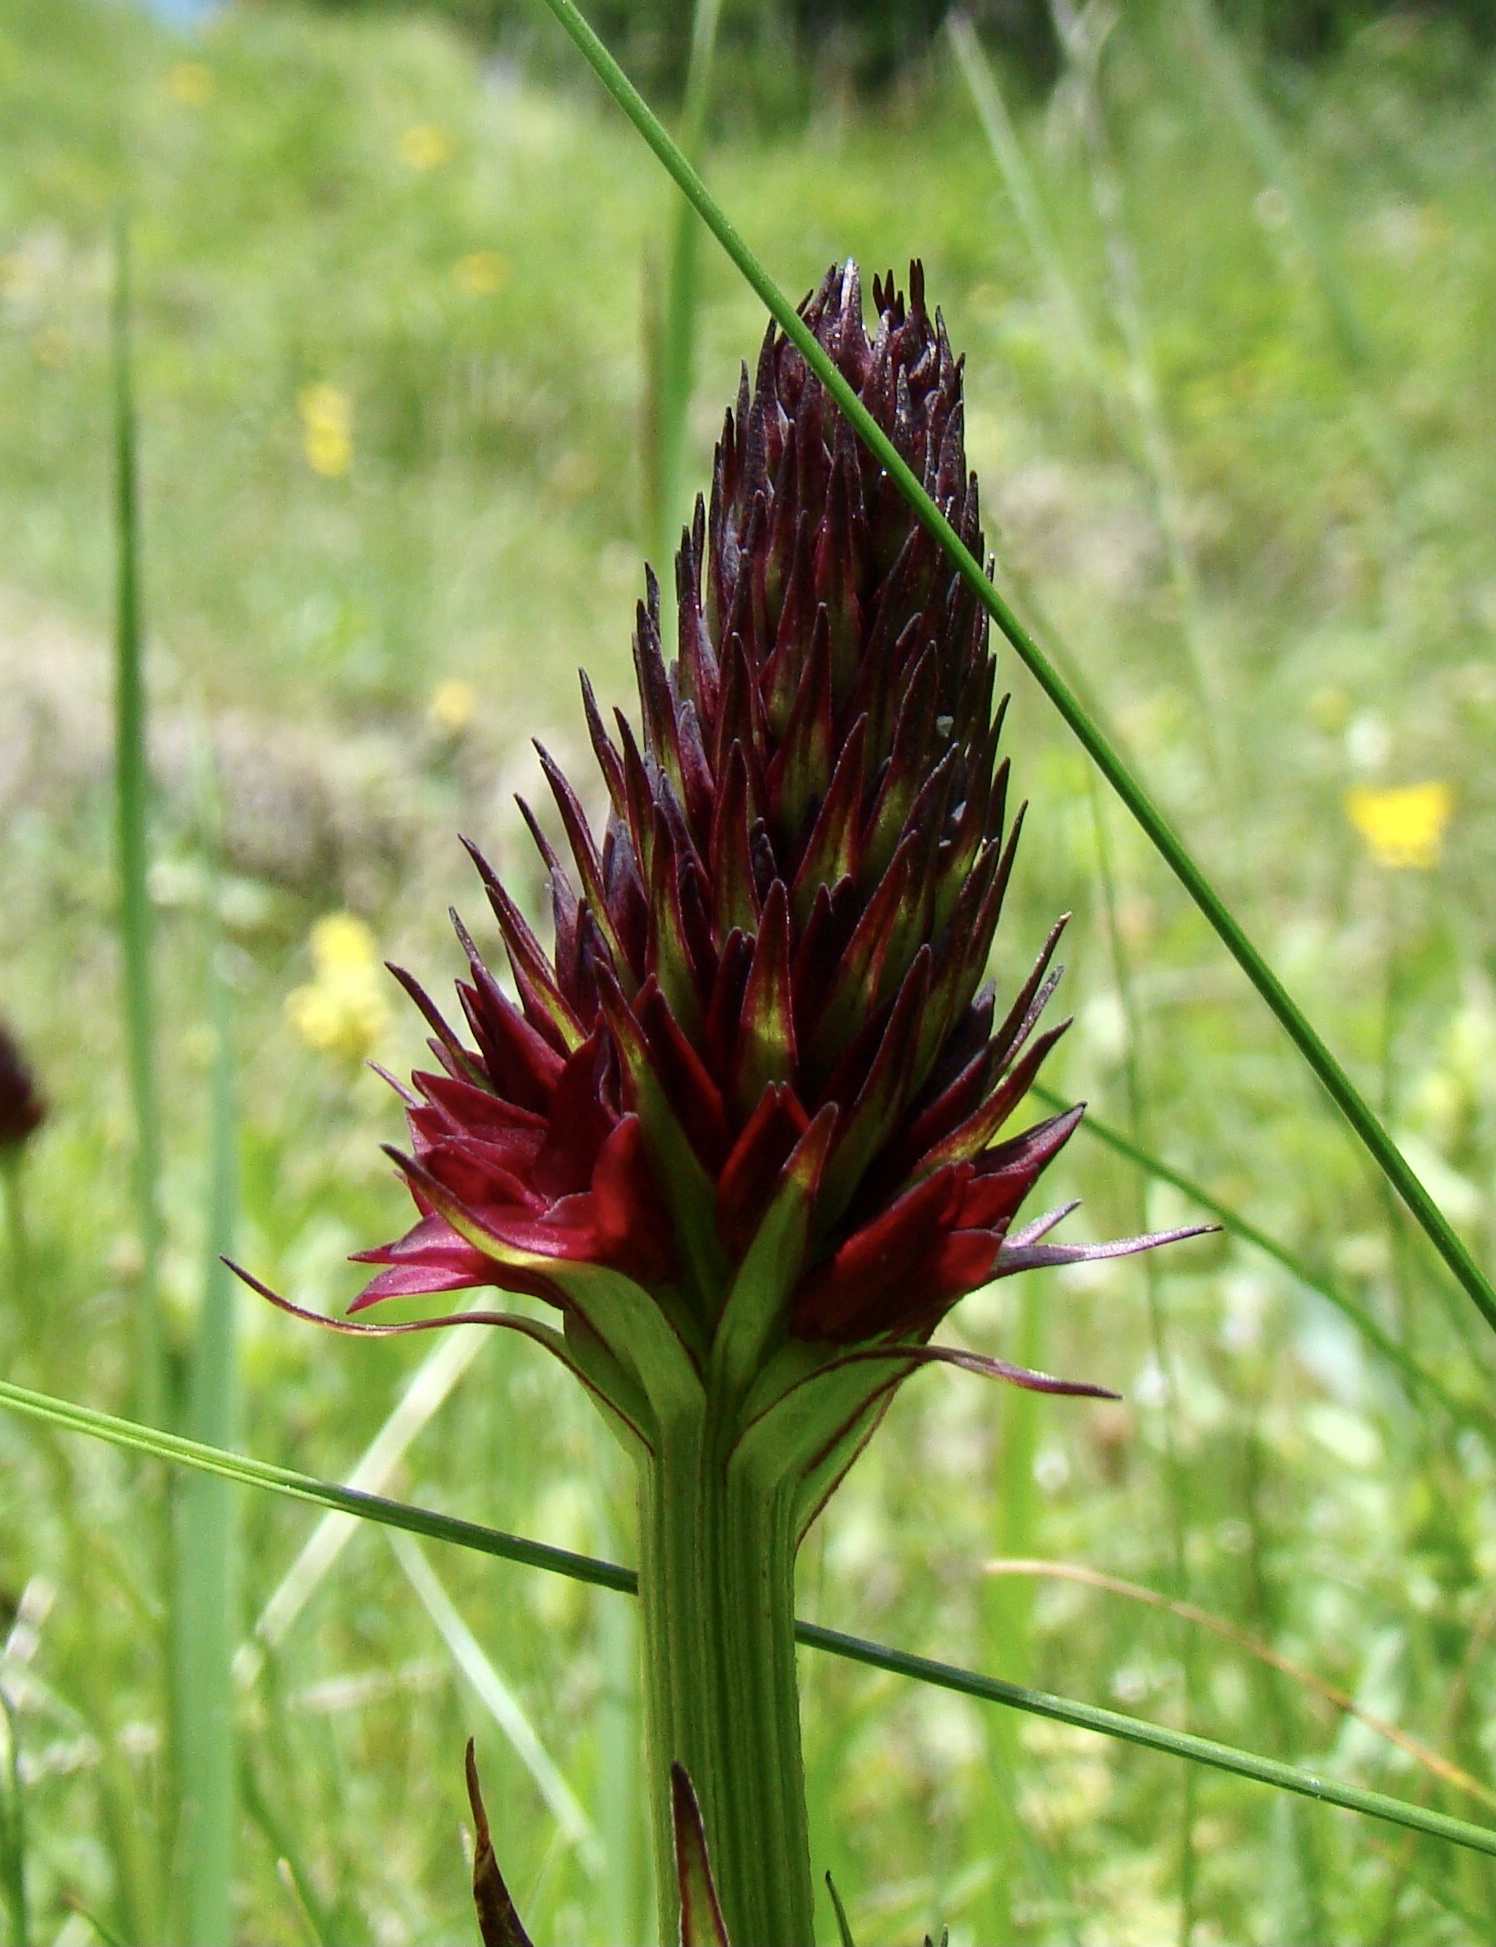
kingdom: Plantae
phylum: Tracheophyta
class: Liliopsida
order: Asparagales
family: Orchidaceae
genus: Gymnadenia
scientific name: Gymnadenia rhellicani
